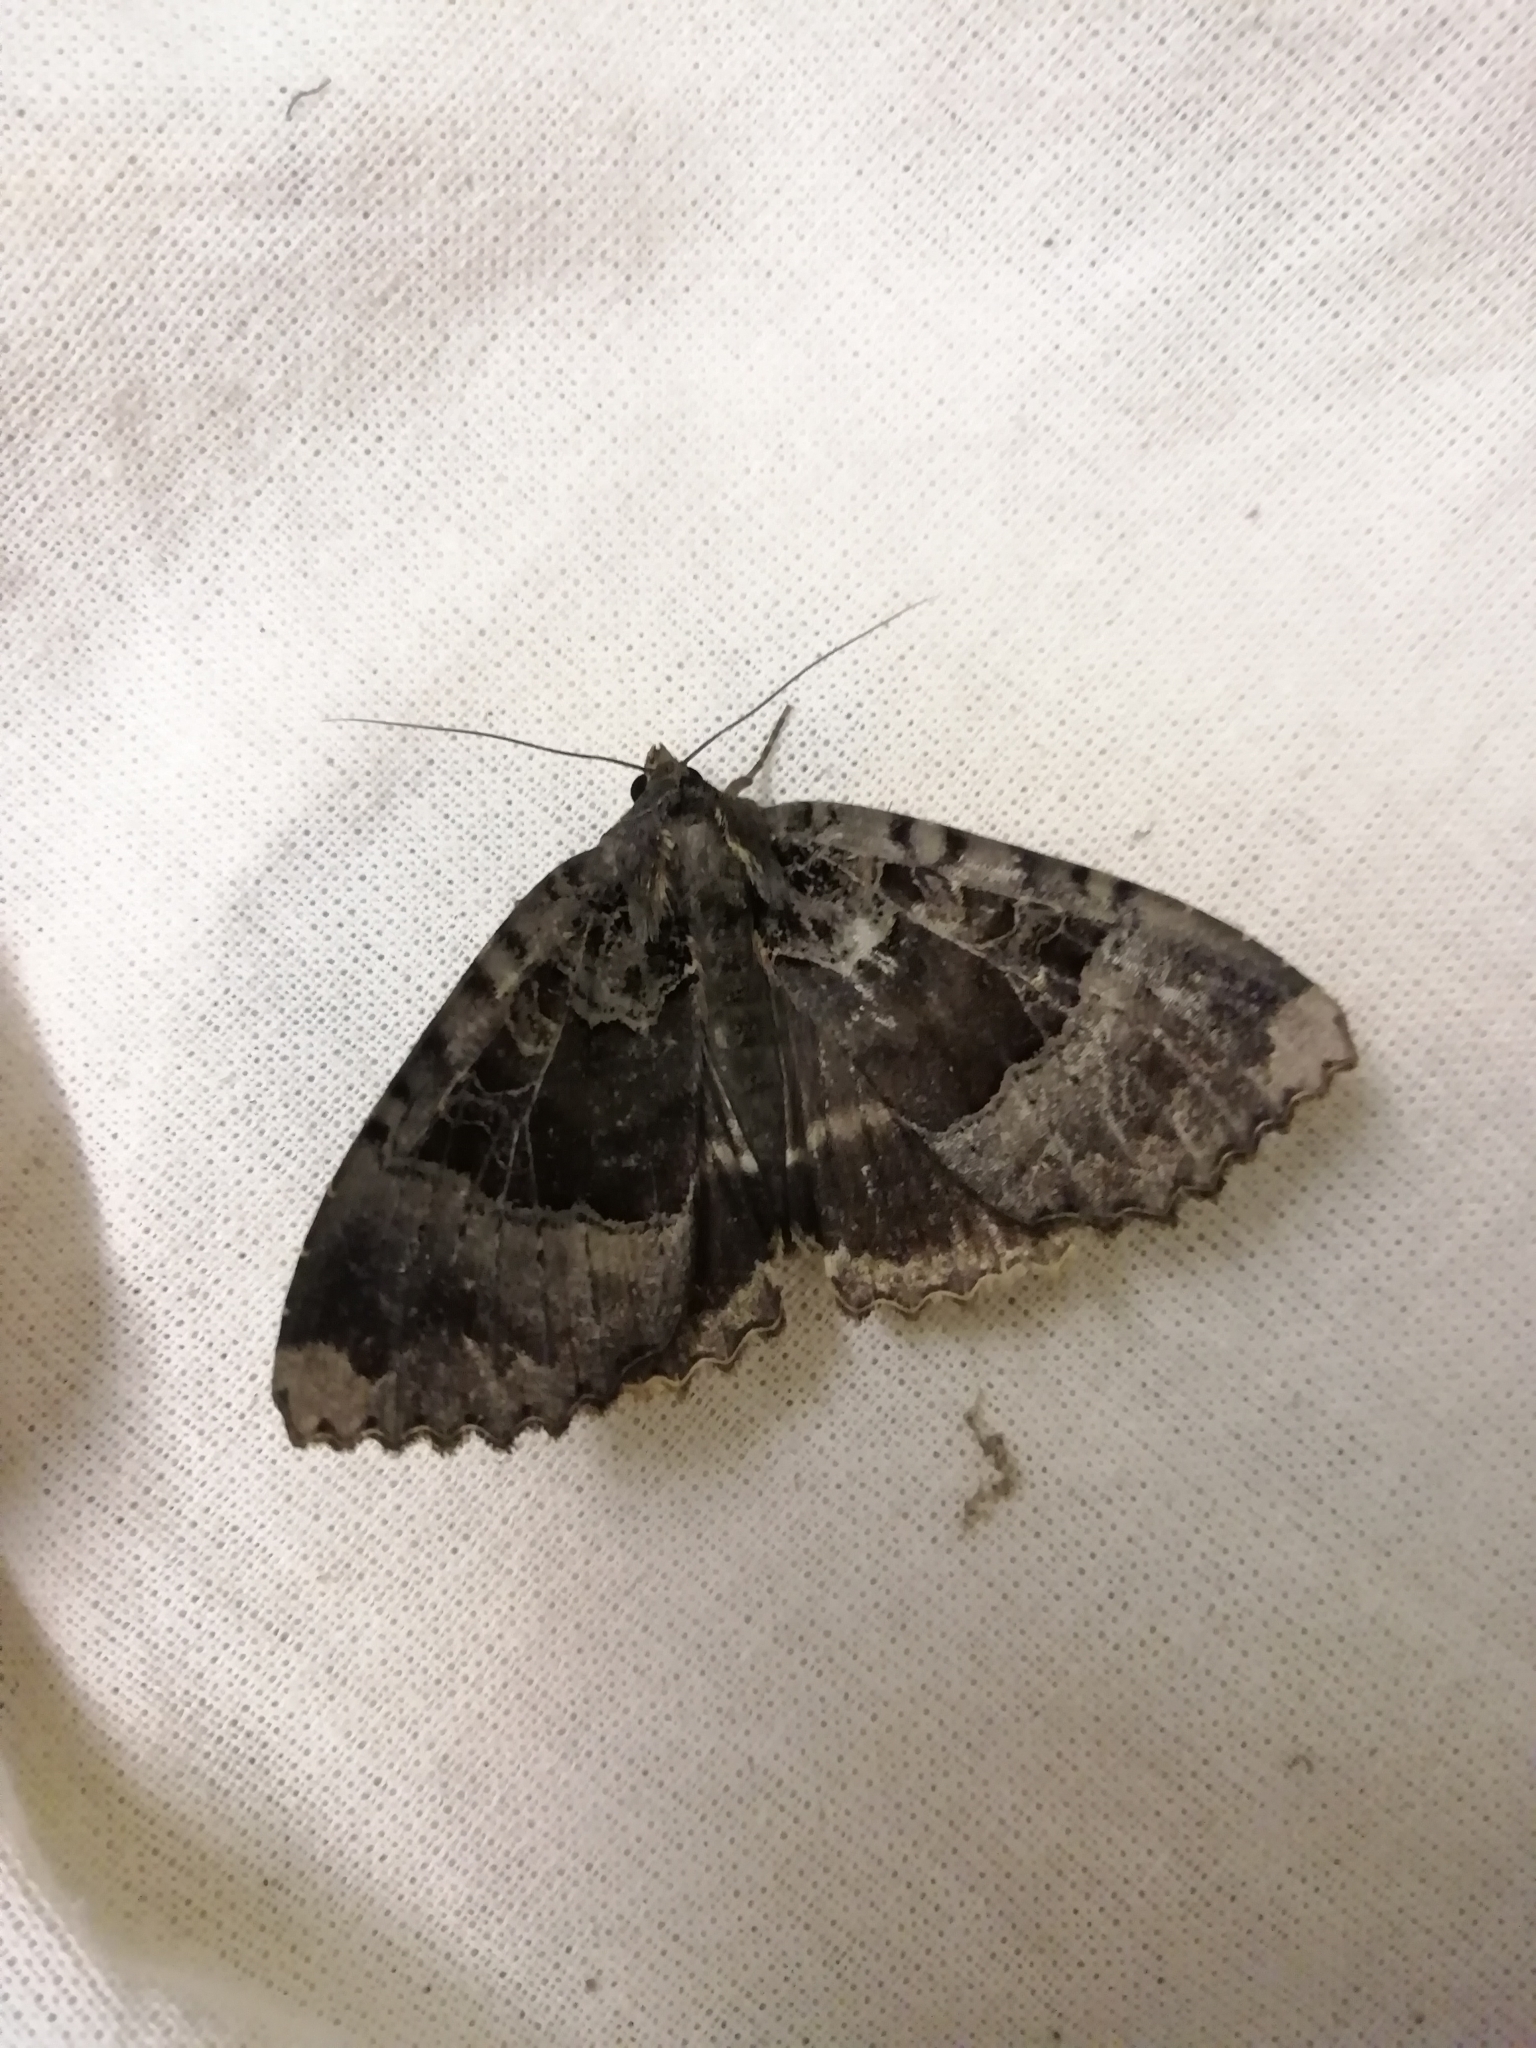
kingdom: Animalia
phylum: Arthropoda
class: Insecta
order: Lepidoptera
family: Noctuidae
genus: Mormo
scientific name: Mormo maura
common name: Old lady
